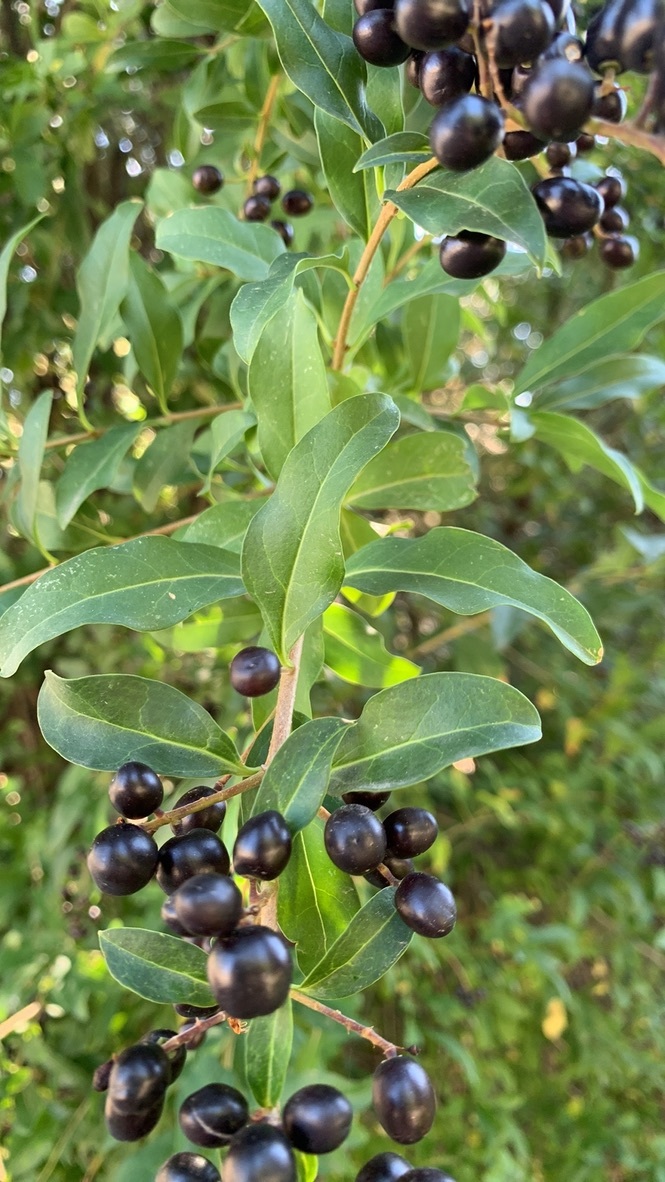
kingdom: Plantae
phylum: Tracheophyta
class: Magnoliopsida
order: Lamiales
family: Oleaceae
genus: Ligustrum
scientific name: Ligustrum vulgare
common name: Wild privet
